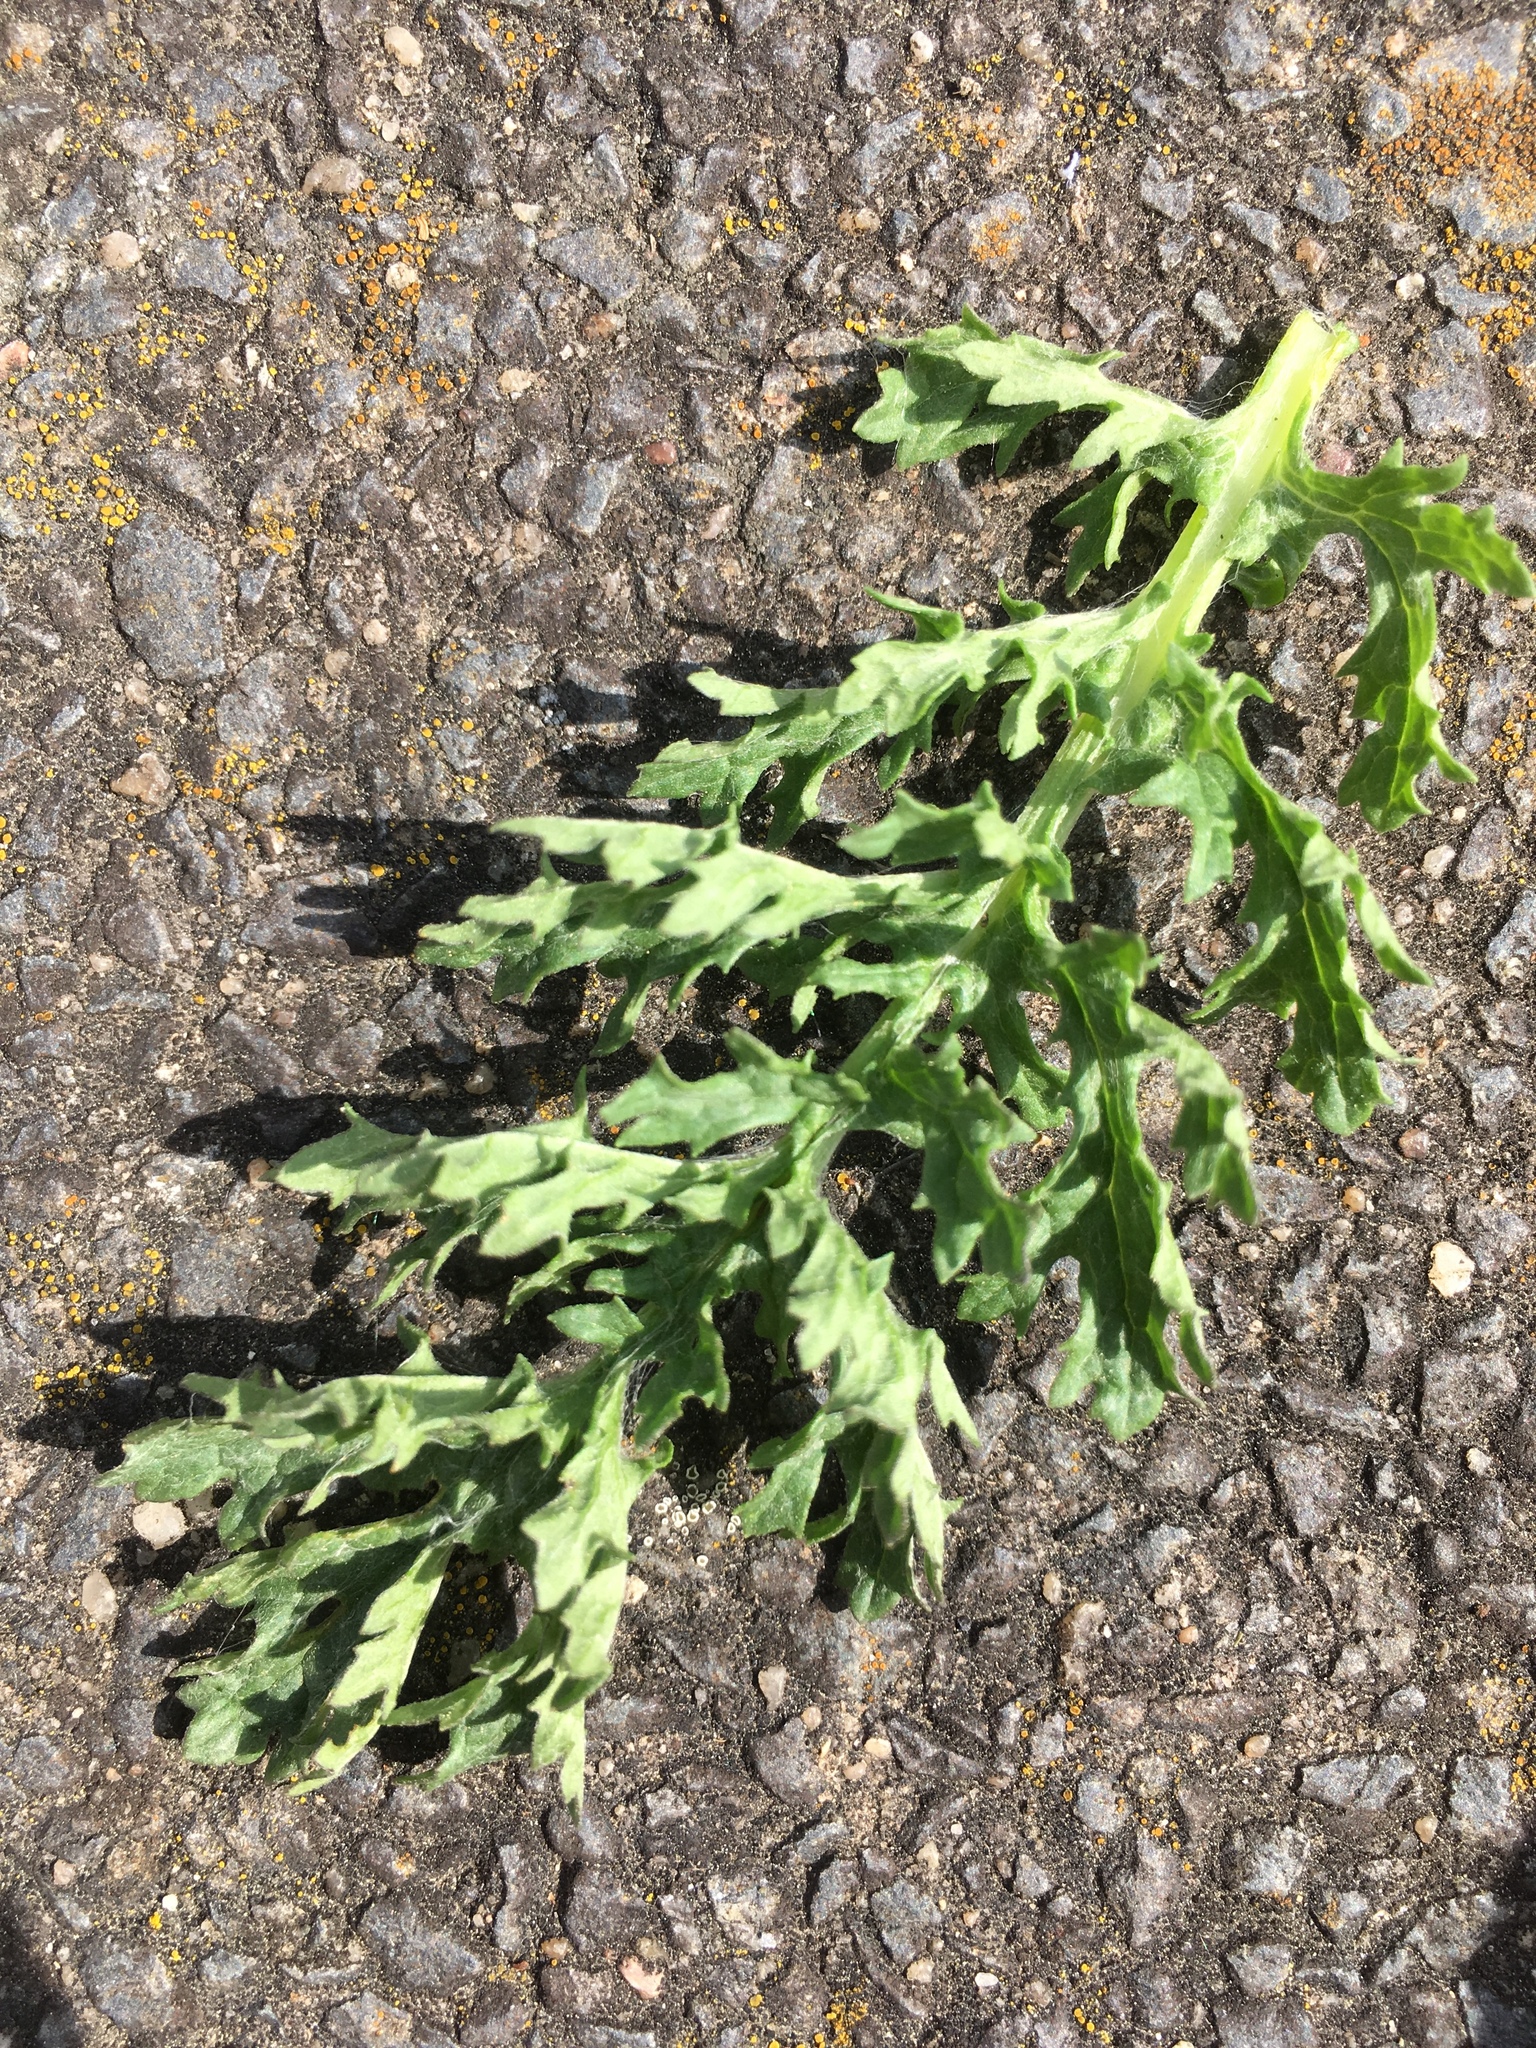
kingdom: Plantae
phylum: Tracheophyta
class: Magnoliopsida
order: Asterales
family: Asteraceae
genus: Jacobaea
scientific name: Jacobaea vulgaris
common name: Stinking willie
